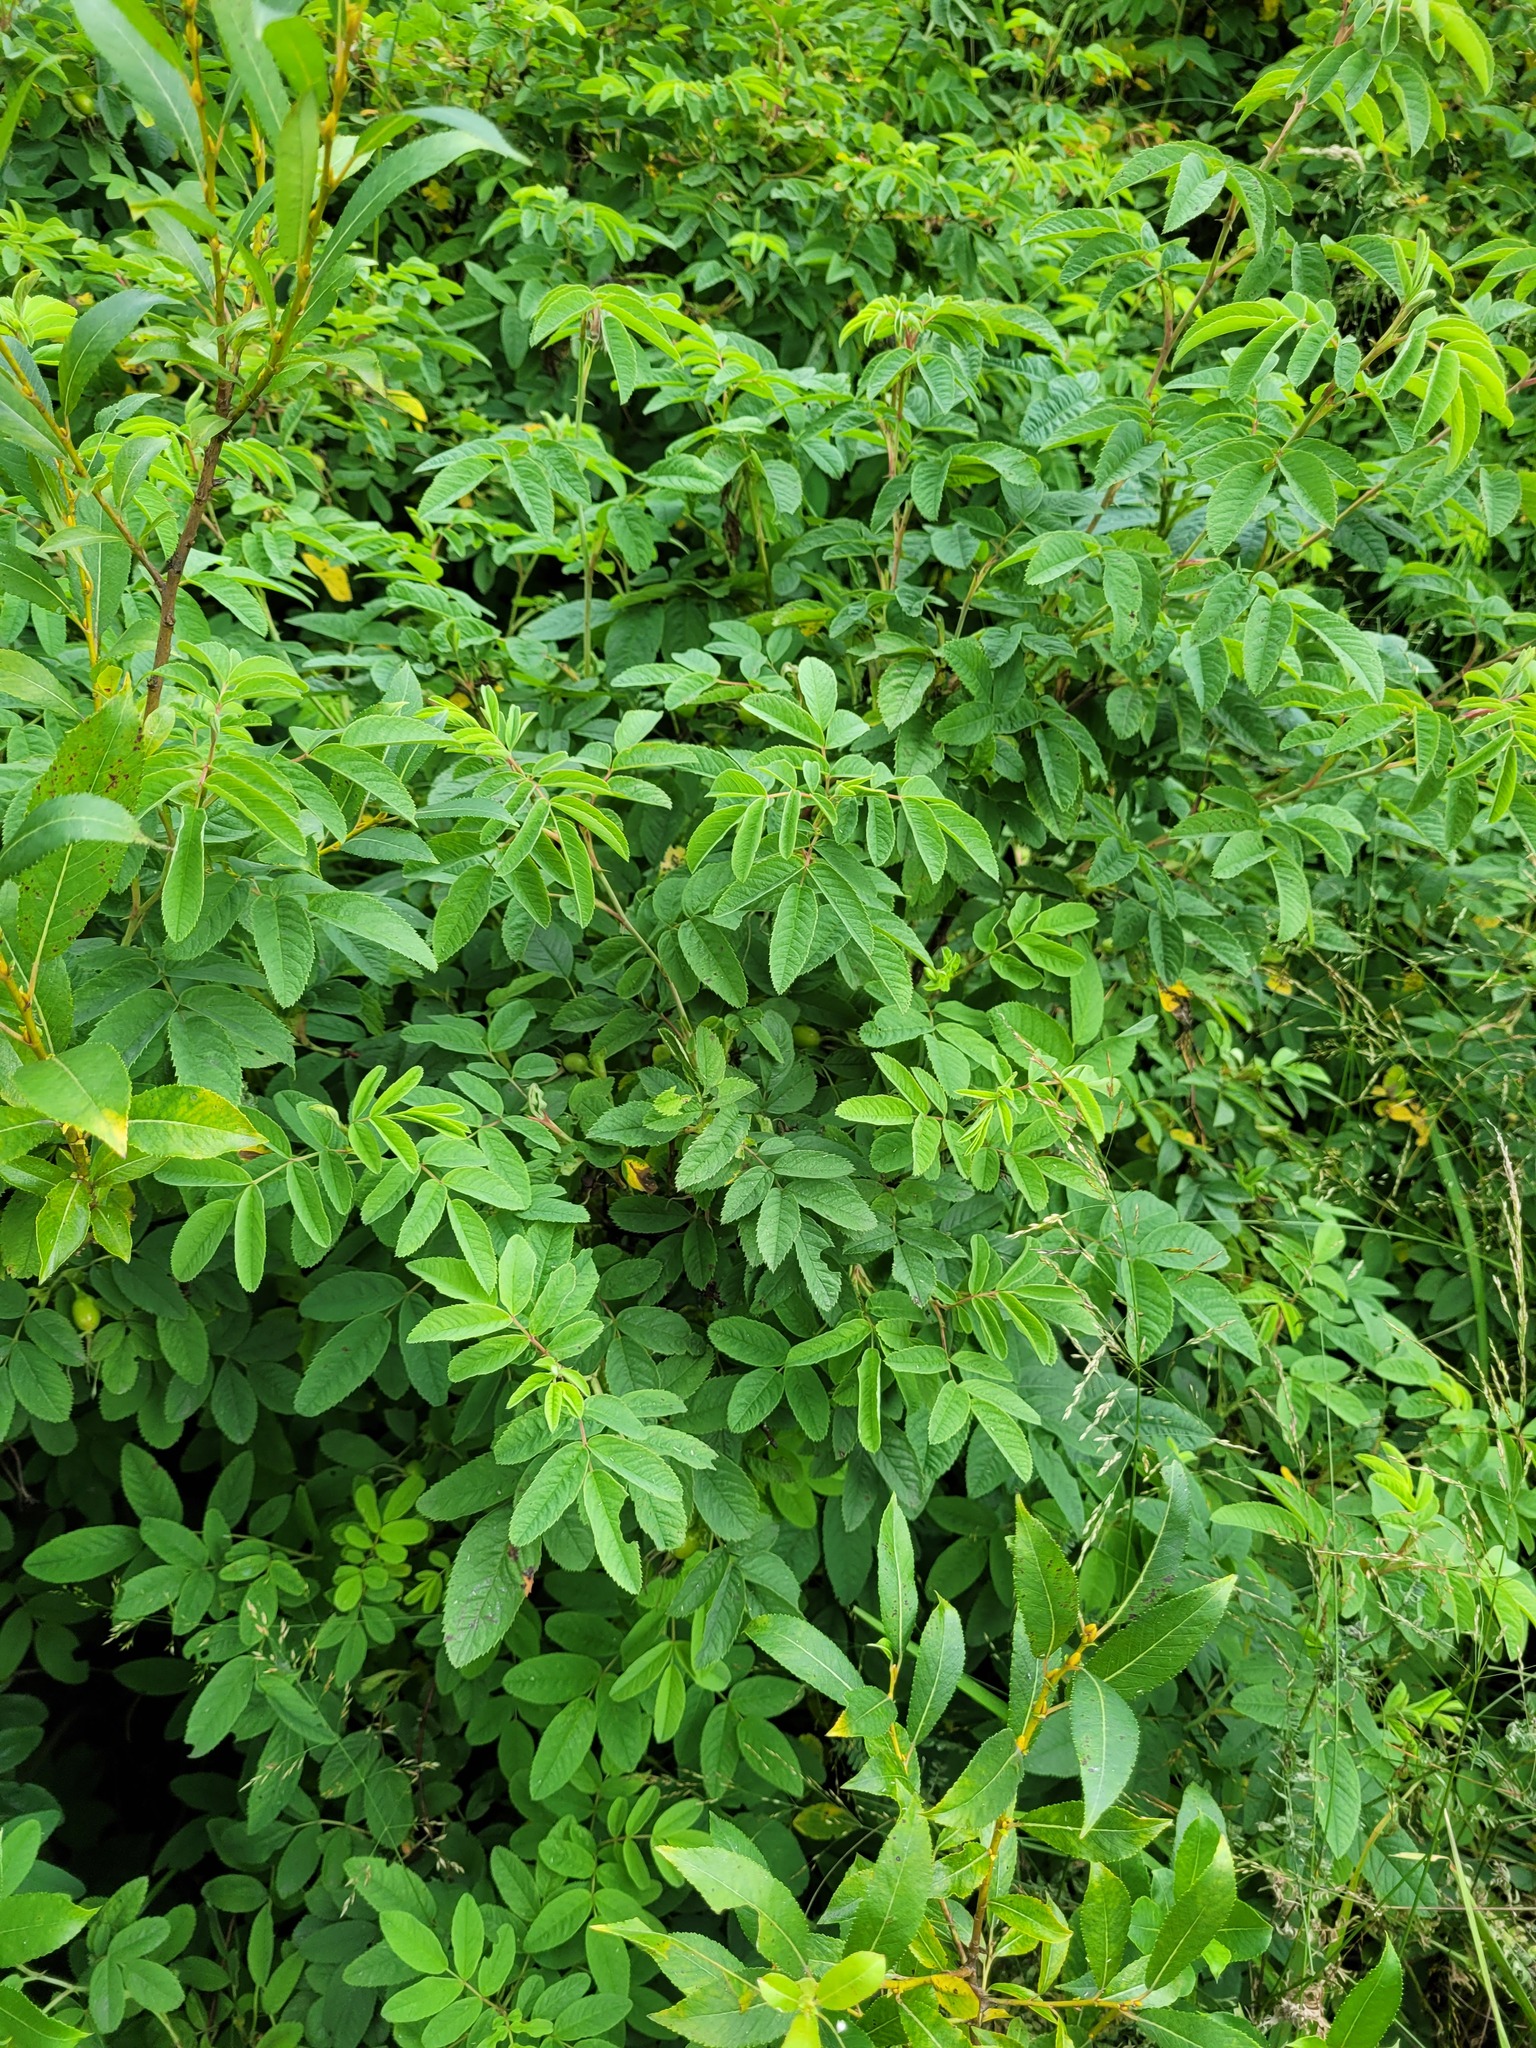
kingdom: Plantae
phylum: Tracheophyta
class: Magnoliopsida
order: Rosales
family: Rosaceae
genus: Rosa
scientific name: Rosa majalis
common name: Cinnamon rose
